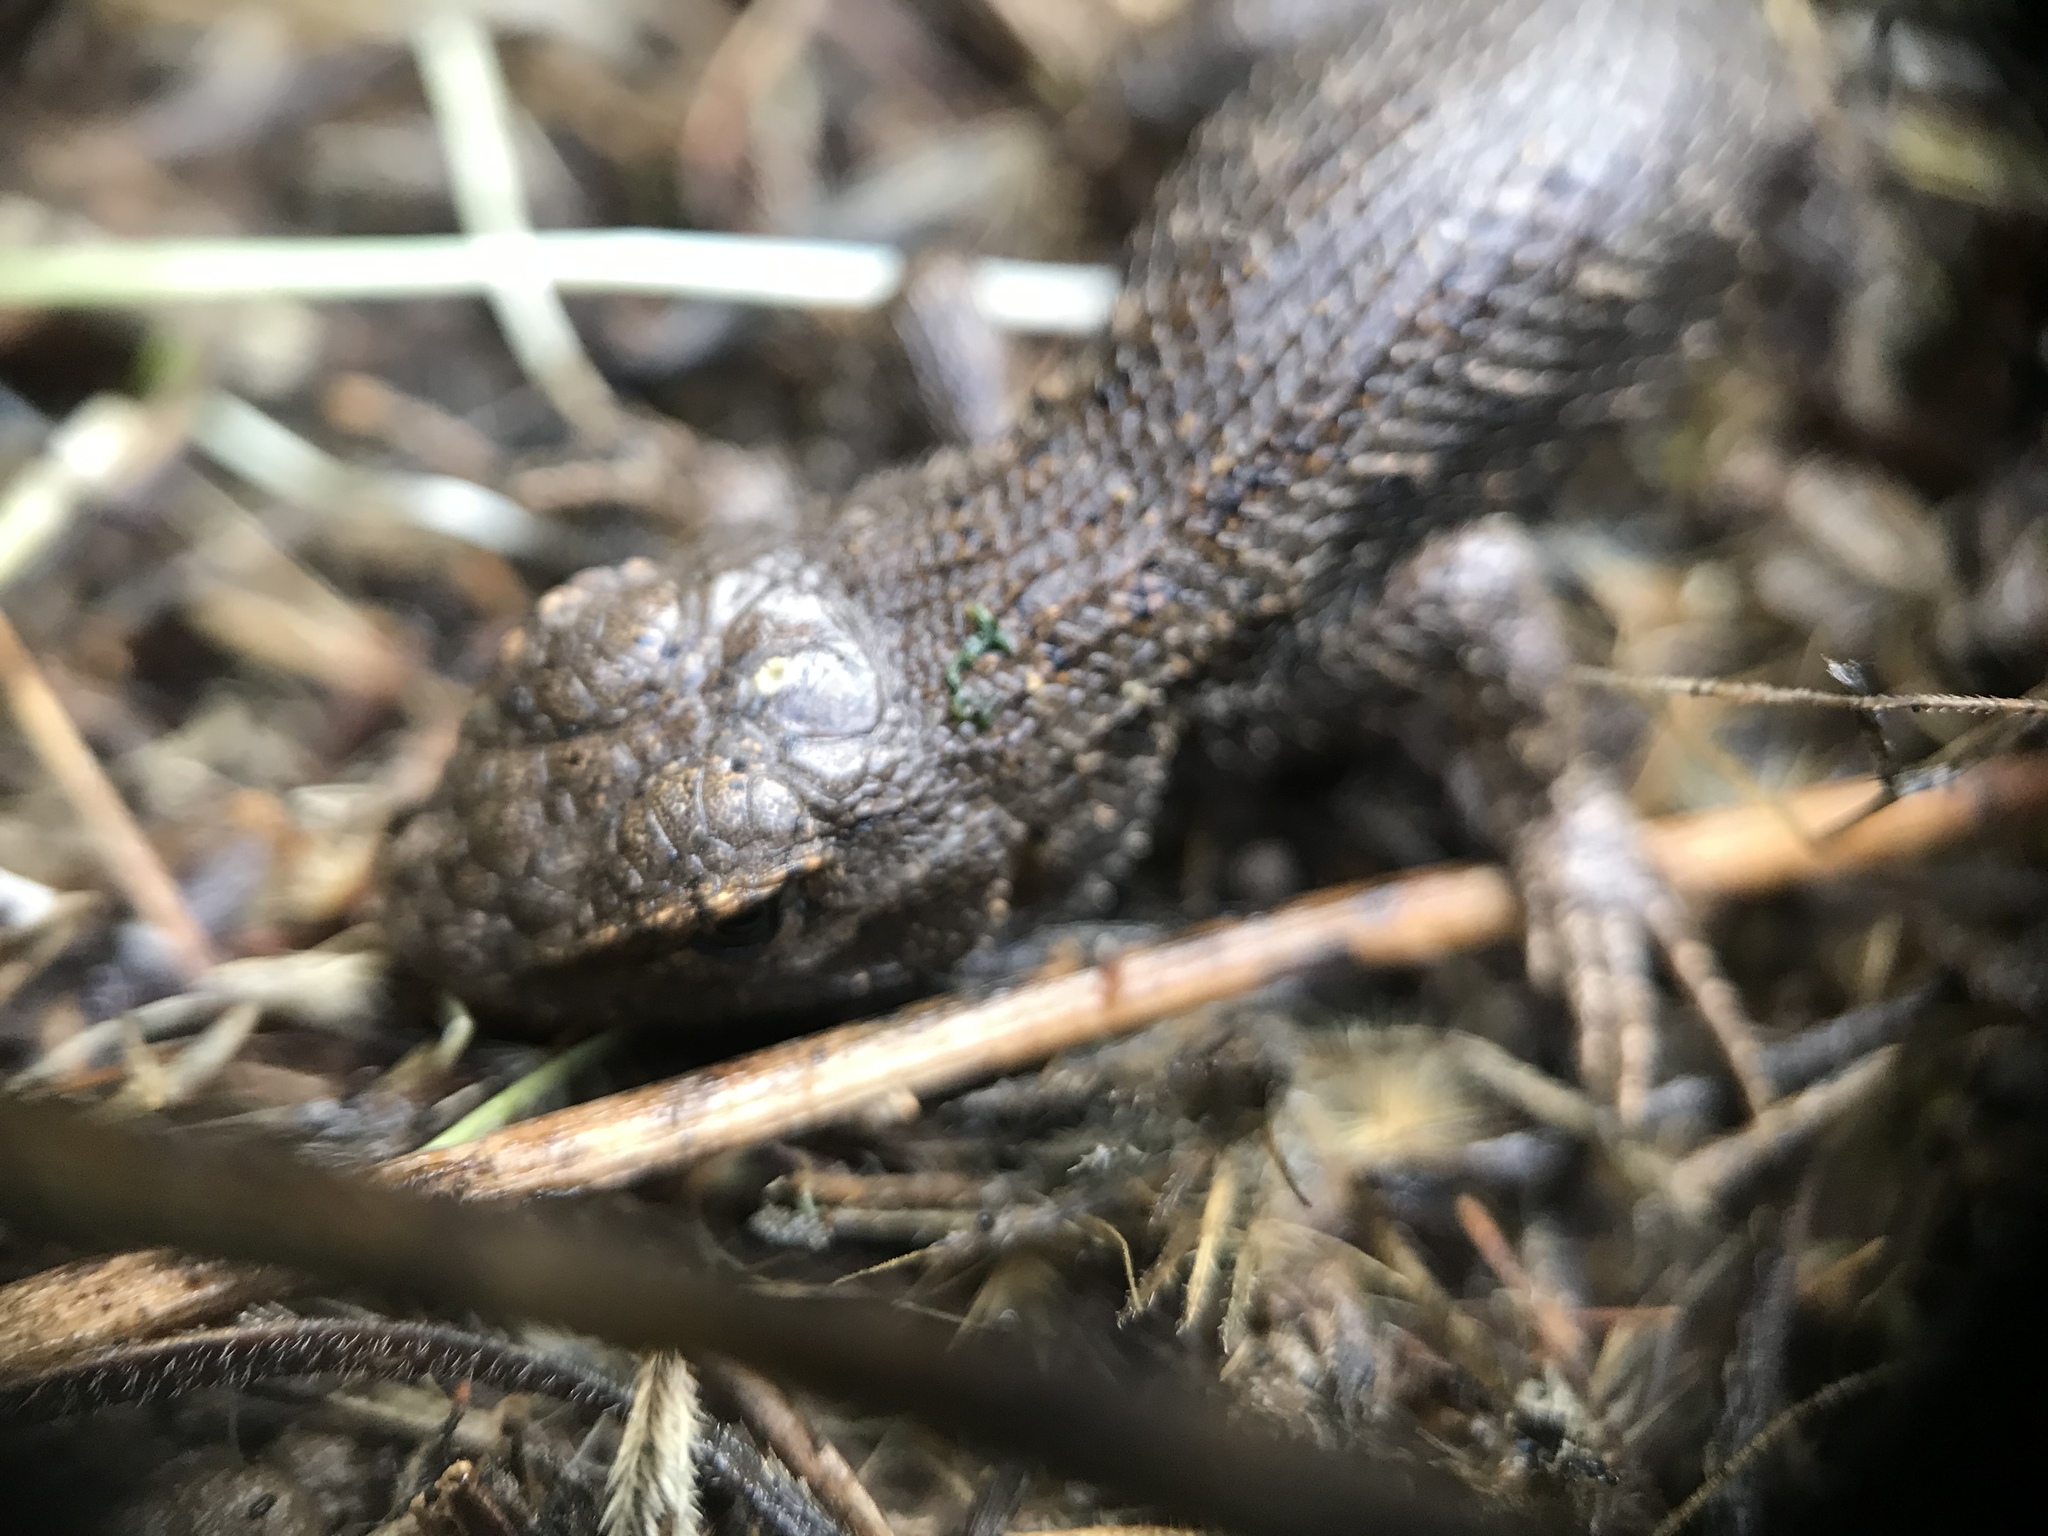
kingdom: Animalia
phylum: Chordata
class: Squamata
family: Phrynosomatidae
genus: Sceloporus
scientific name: Sceloporus occidentalis
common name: Western fence lizard
